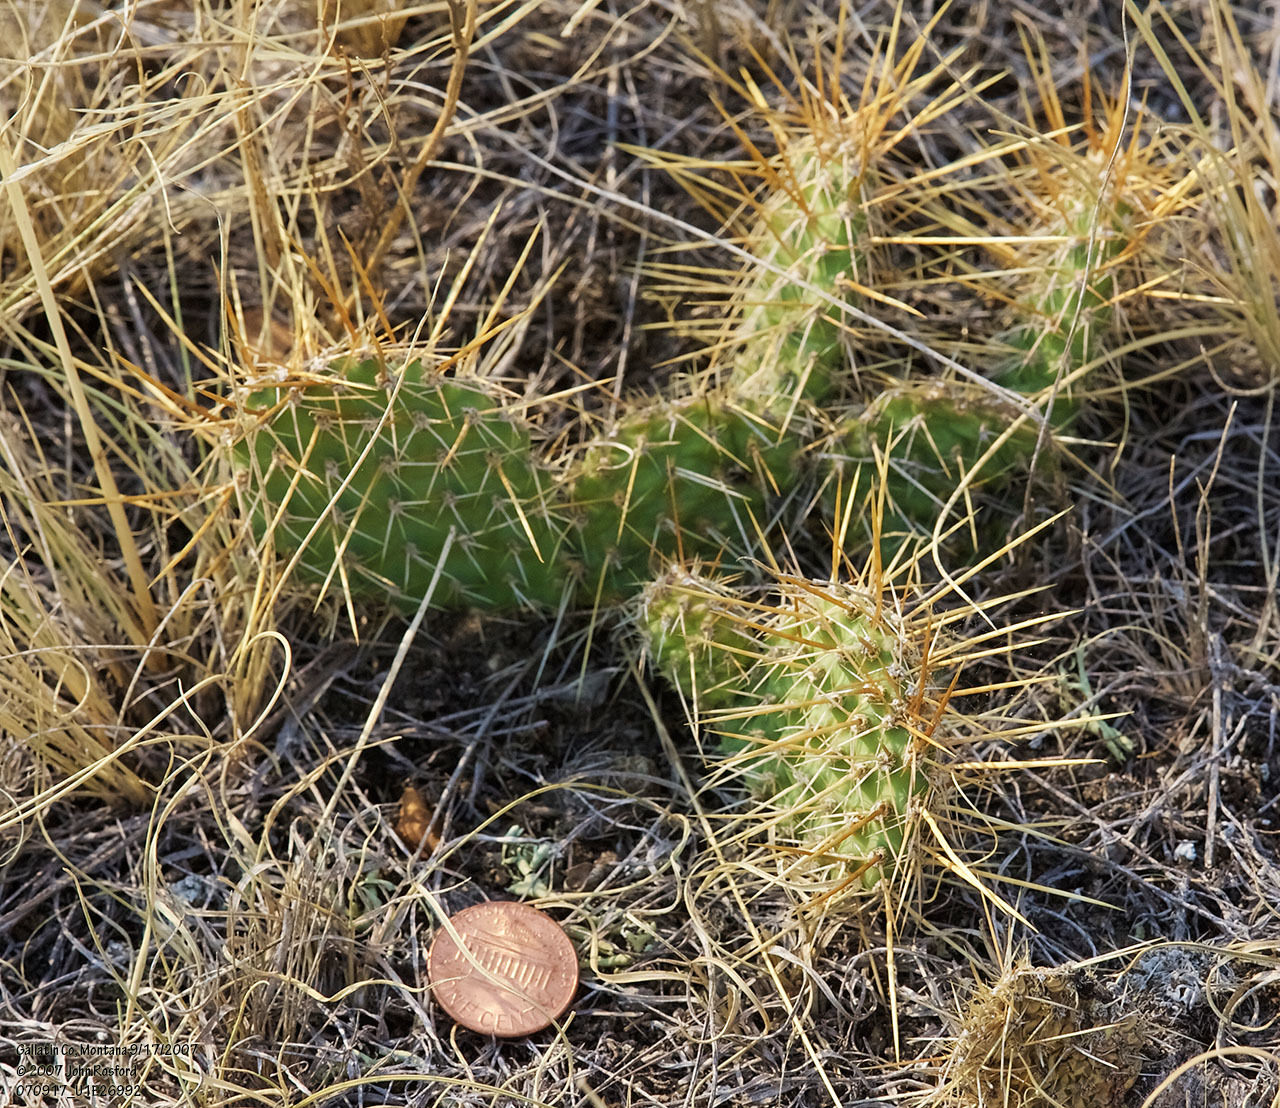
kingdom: Plantae
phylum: Tracheophyta
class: Magnoliopsida
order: Caryophyllales
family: Cactaceae
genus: Opuntia
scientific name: Opuntia polyacantha
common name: Plains prickly-pear
